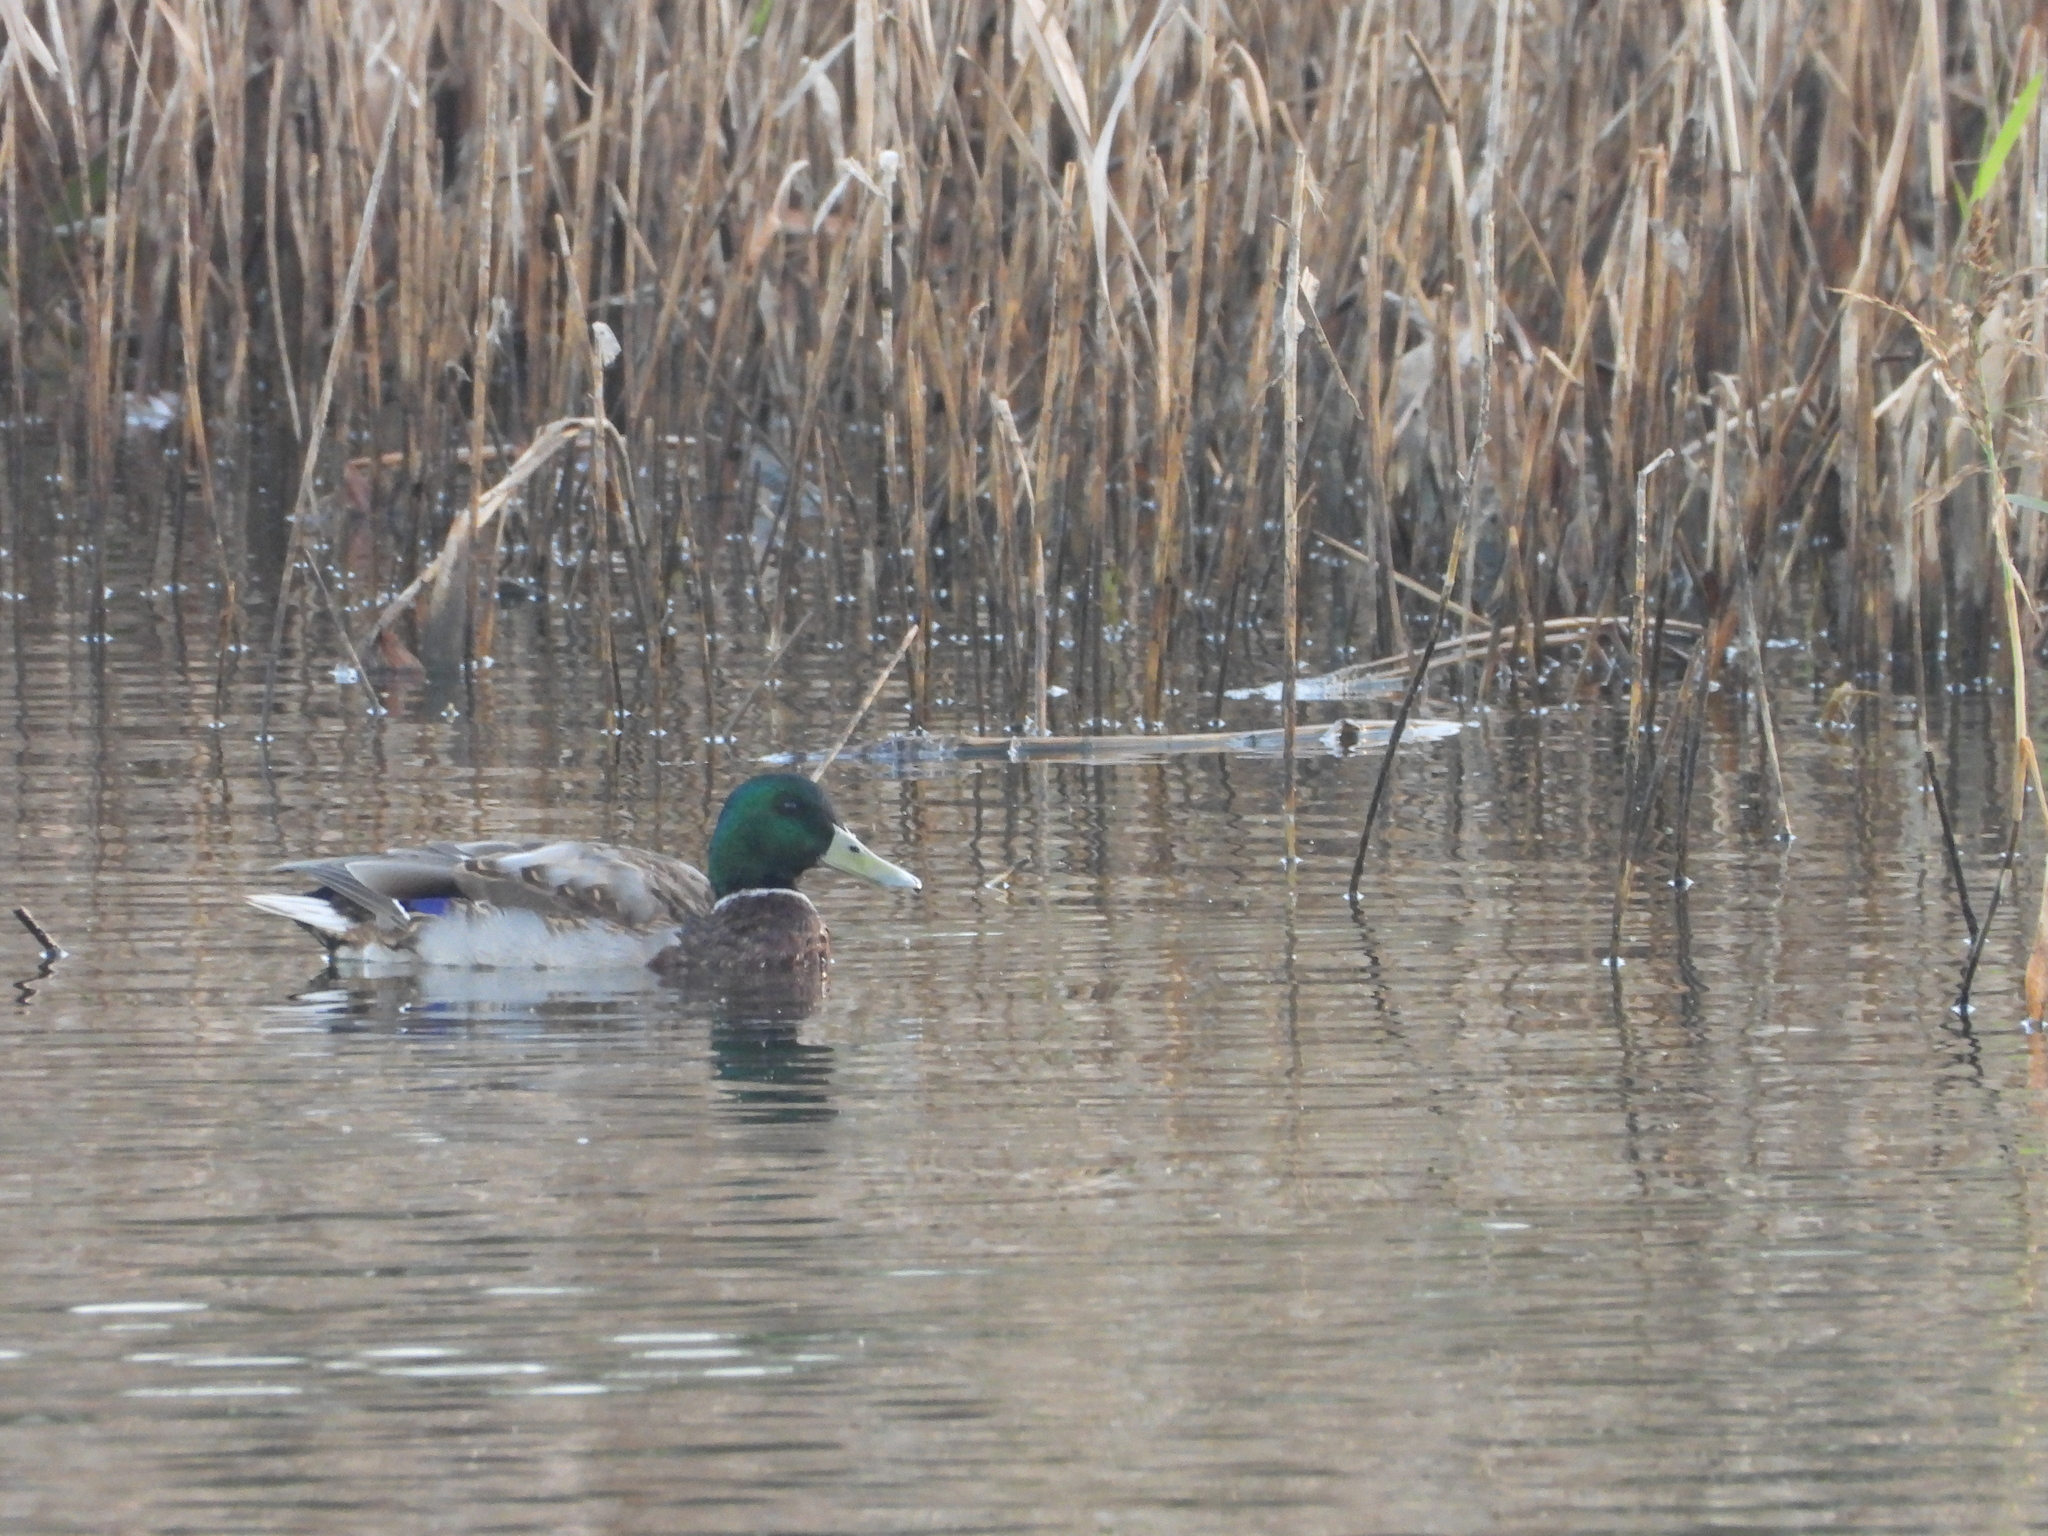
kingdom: Animalia
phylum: Chordata
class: Aves
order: Anseriformes
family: Anatidae
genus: Anas
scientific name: Anas platyrhynchos
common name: Mallard
